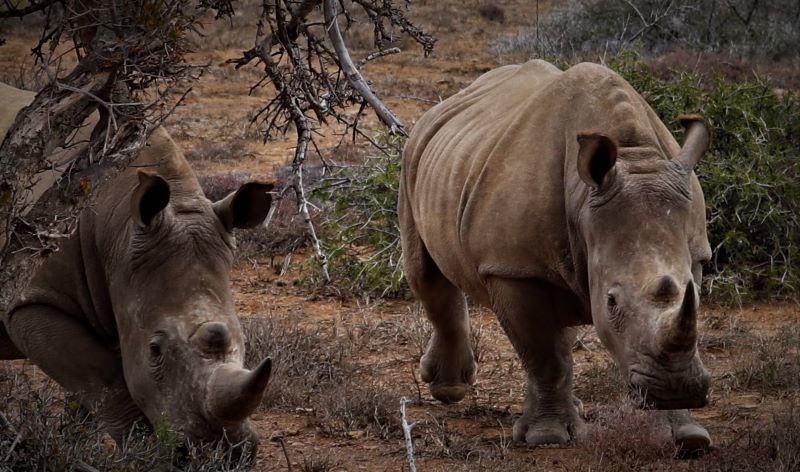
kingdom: Animalia
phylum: Chordata
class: Mammalia
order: Perissodactyla
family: Rhinocerotidae
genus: Ceratotherium
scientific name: Ceratotherium simum
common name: White rhinoceros
